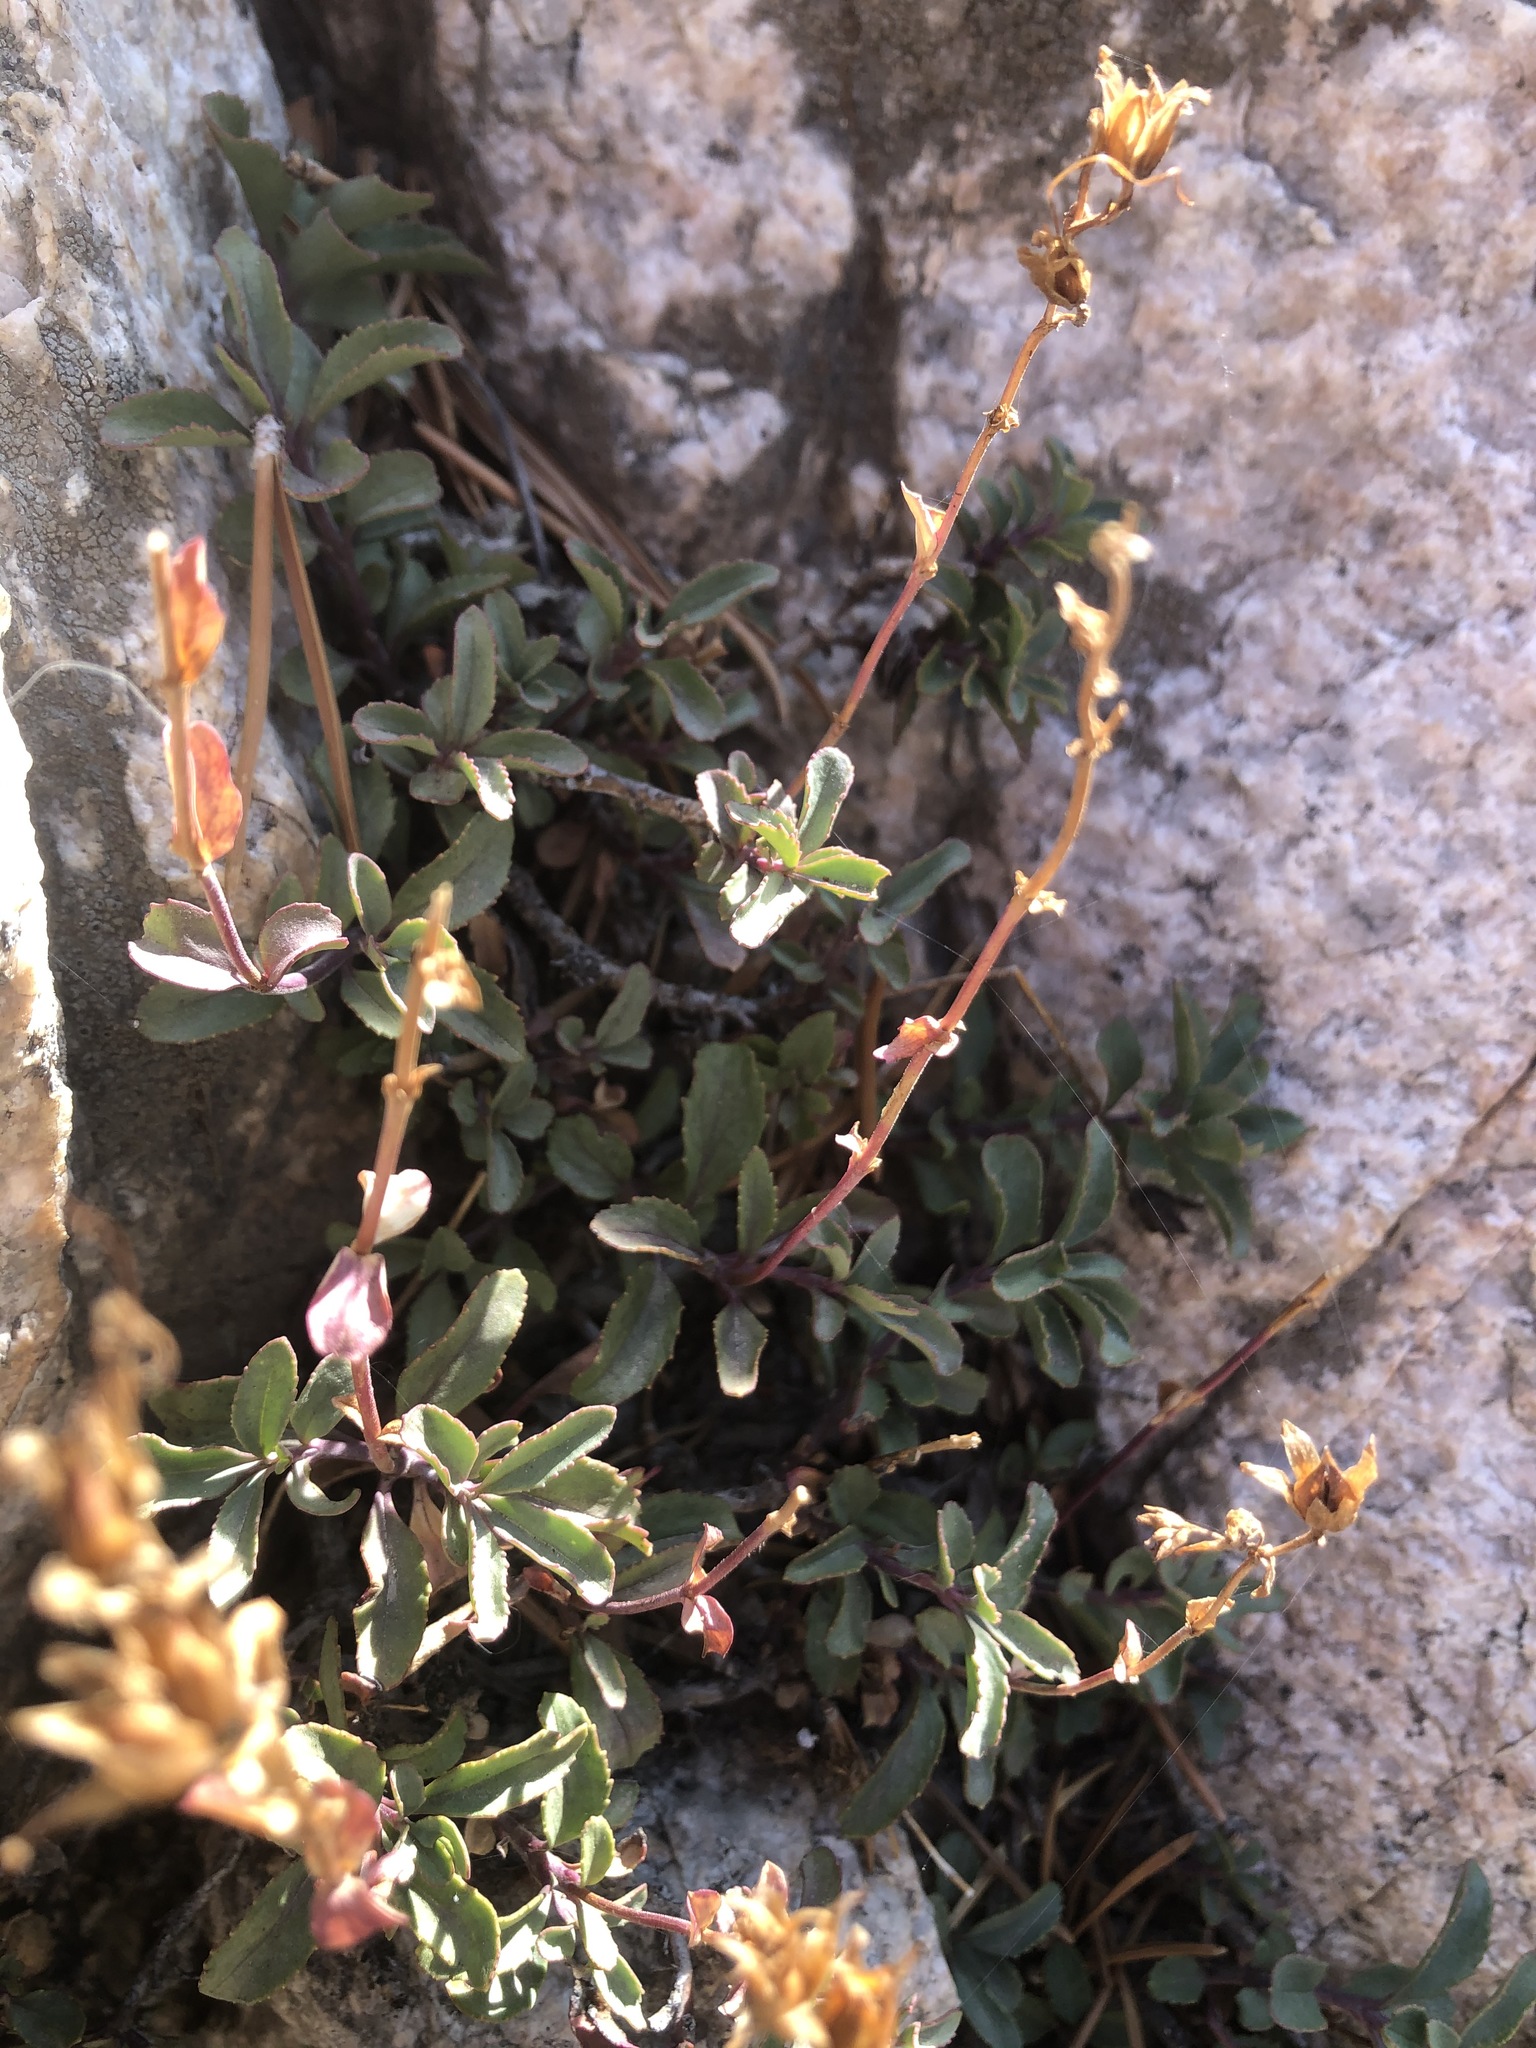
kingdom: Plantae
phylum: Tracheophyta
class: Magnoliopsida
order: Lamiales
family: Plantaginaceae
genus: Penstemon
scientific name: Penstemon newberryi
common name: Mountain-pride
